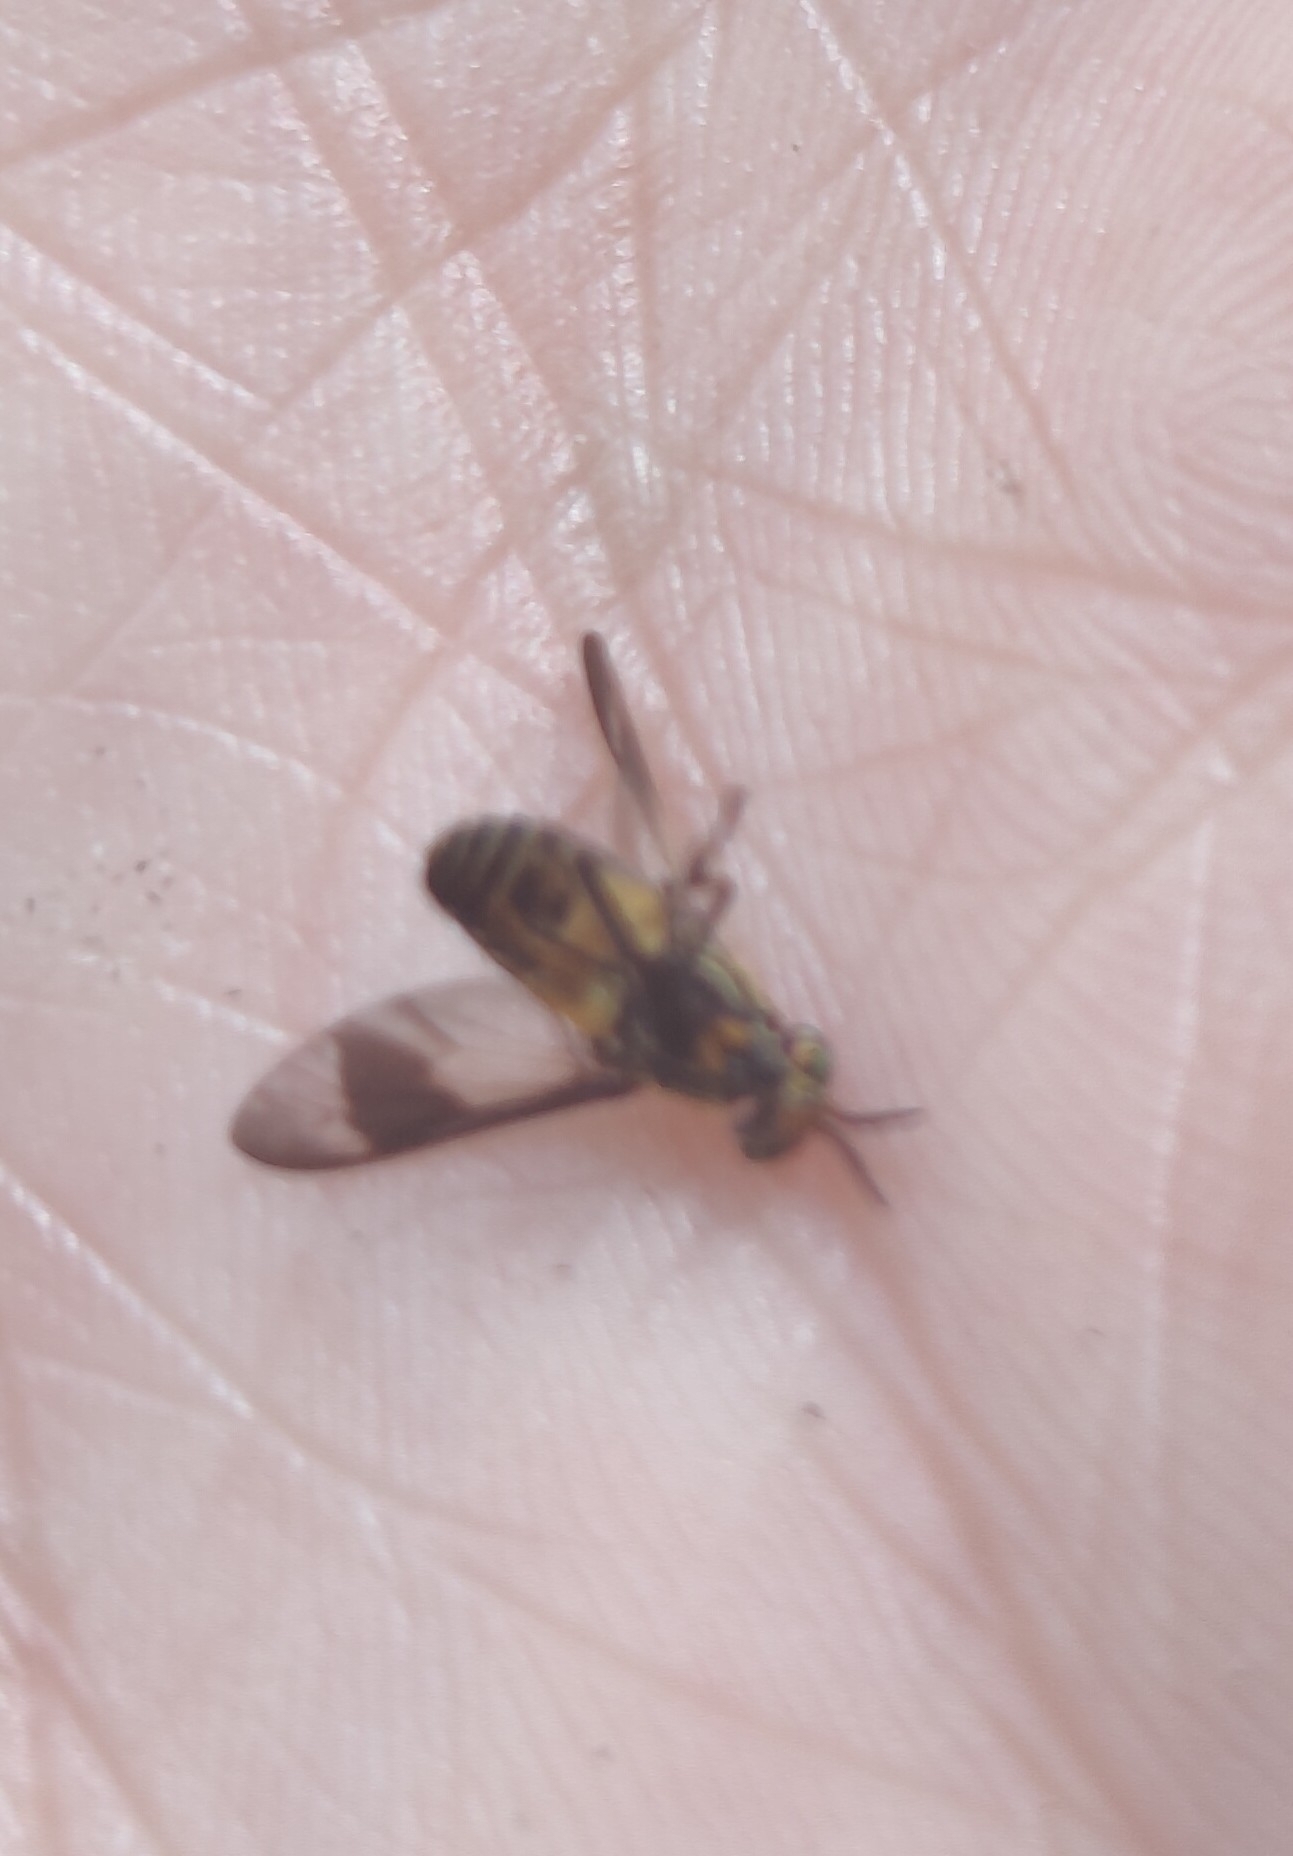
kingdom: Animalia
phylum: Arthropoda
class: Insecta
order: Diptera
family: Tabanidae
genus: Chrysops
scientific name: Chrysops geminatus
